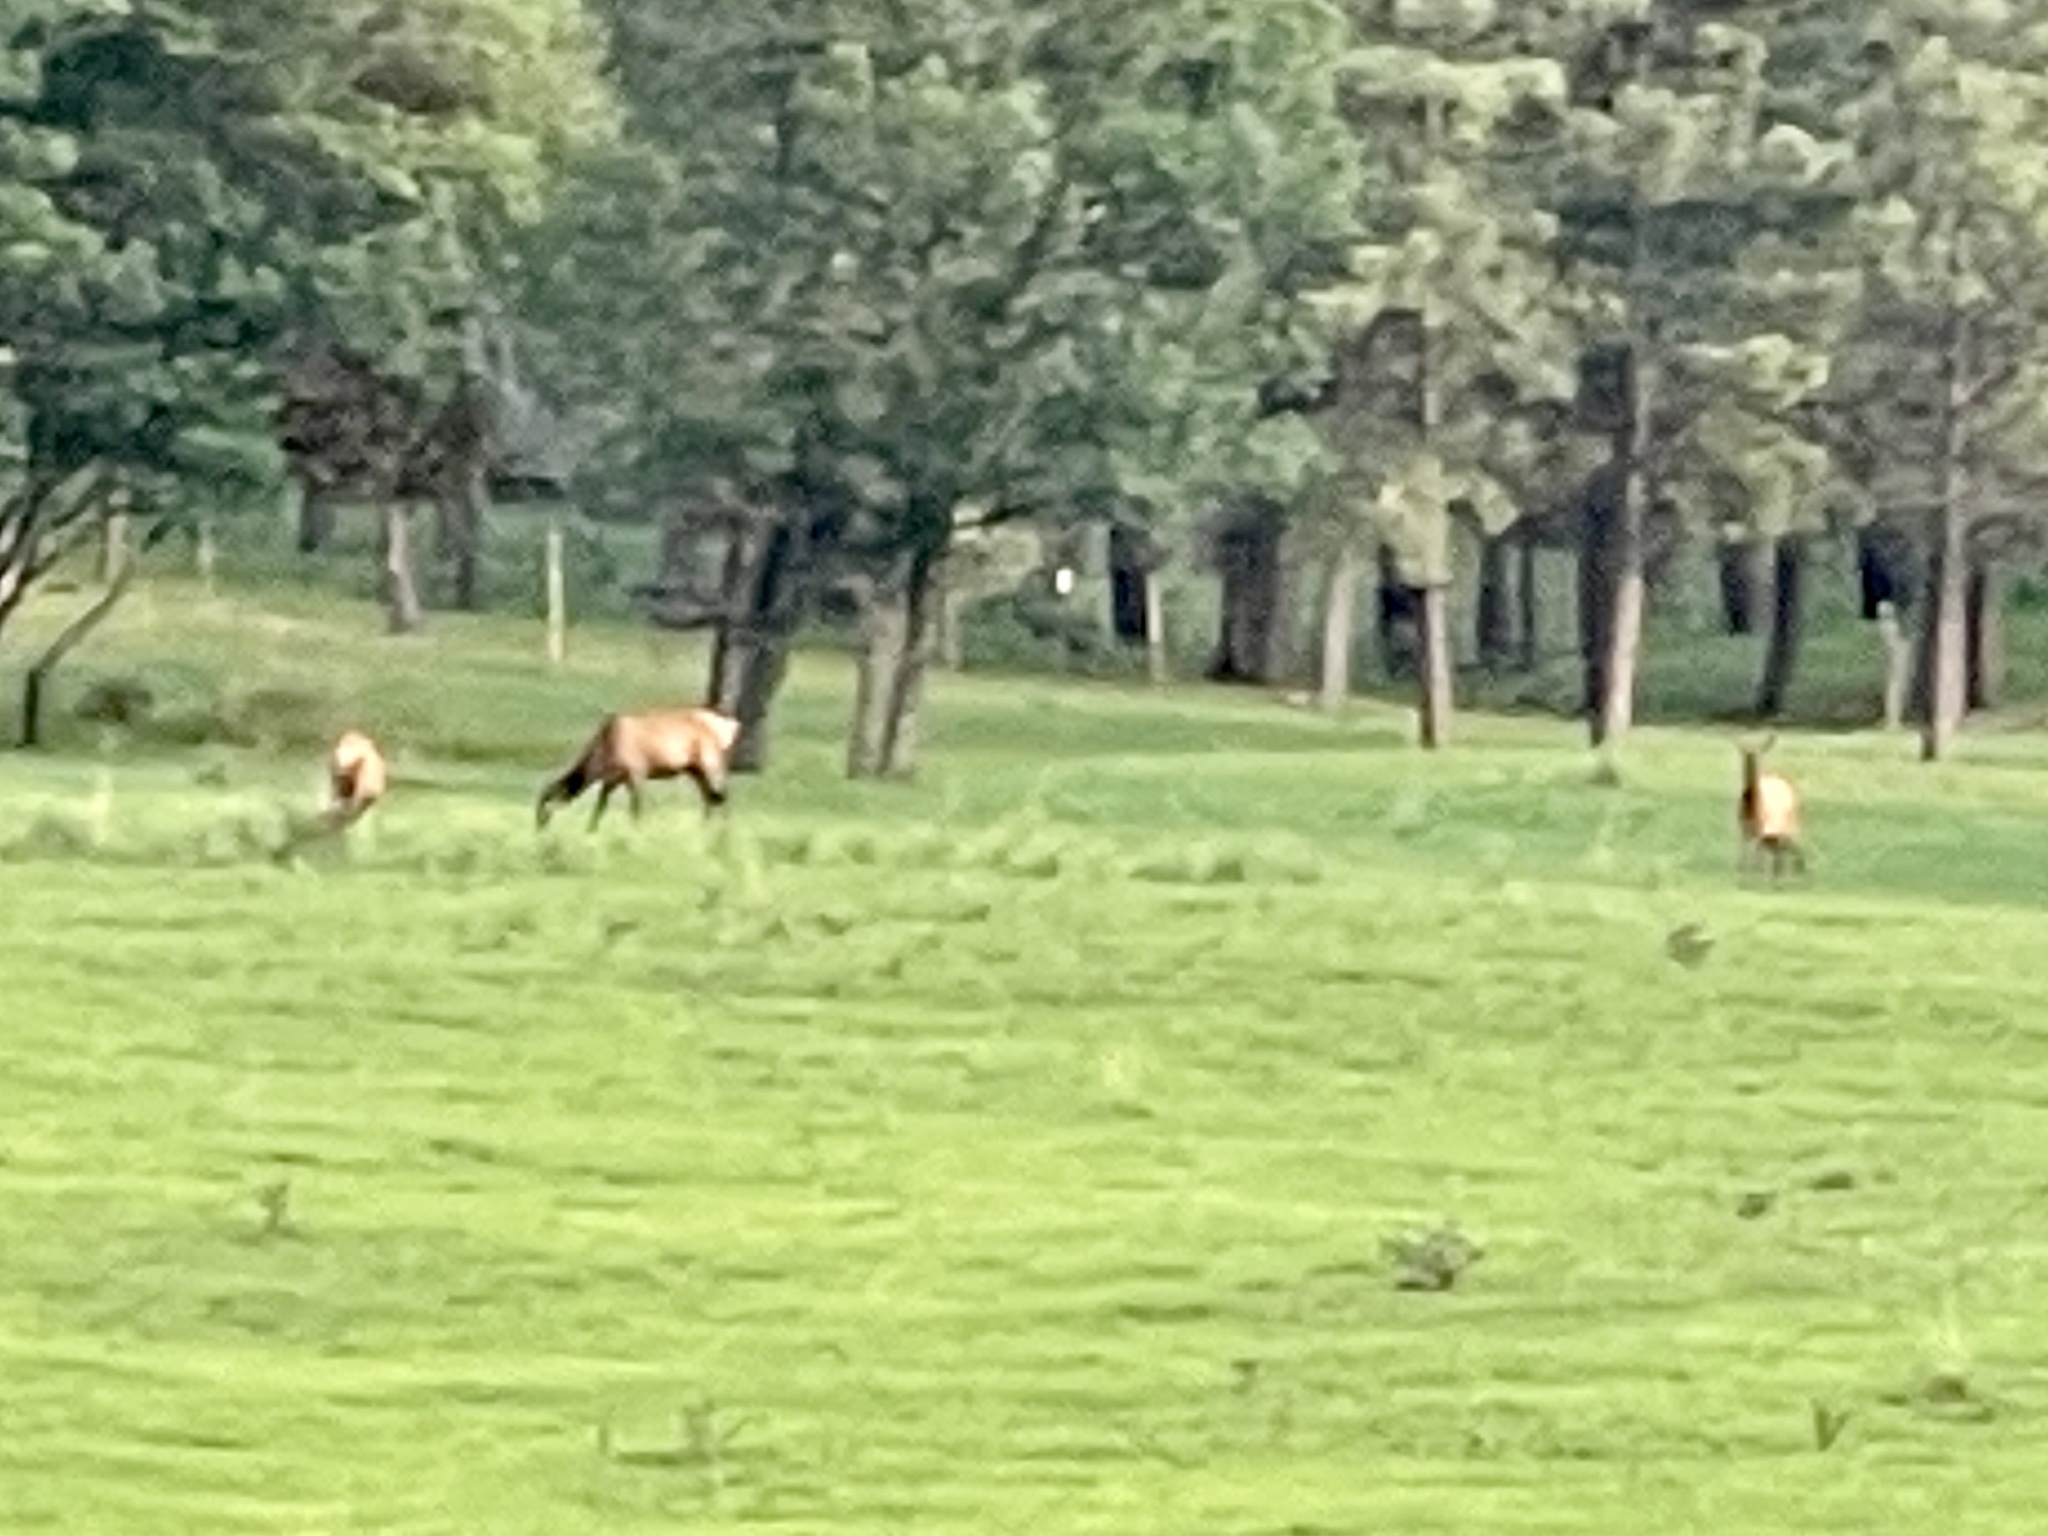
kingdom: Animalia
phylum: Chordata
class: Mammalia
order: Artiodactyla
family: Cervidae
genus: Cervus
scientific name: Cervus elaphus
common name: Red deer
